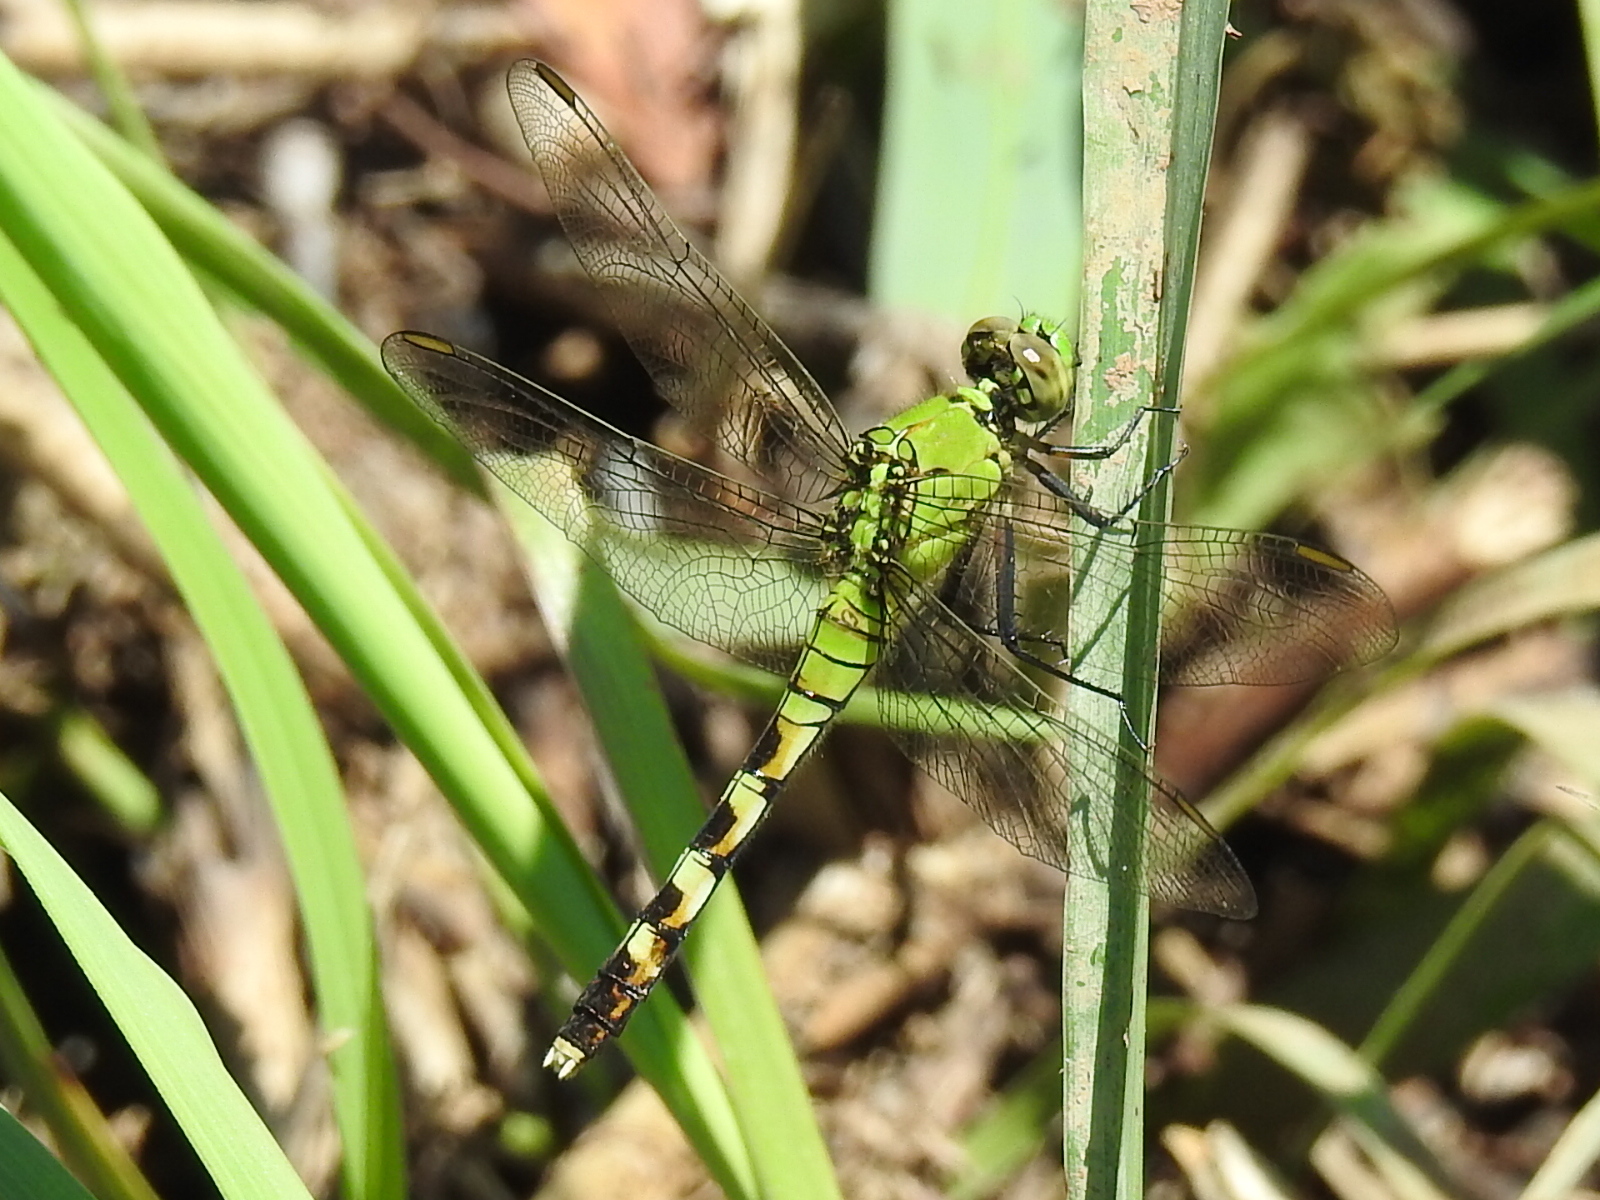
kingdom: Animalia
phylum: Arthropoda
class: Insecta
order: Odonata
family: Libellulidae
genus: Erythemis
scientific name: Erythemis simplicicollis
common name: Eastern pondhawk
